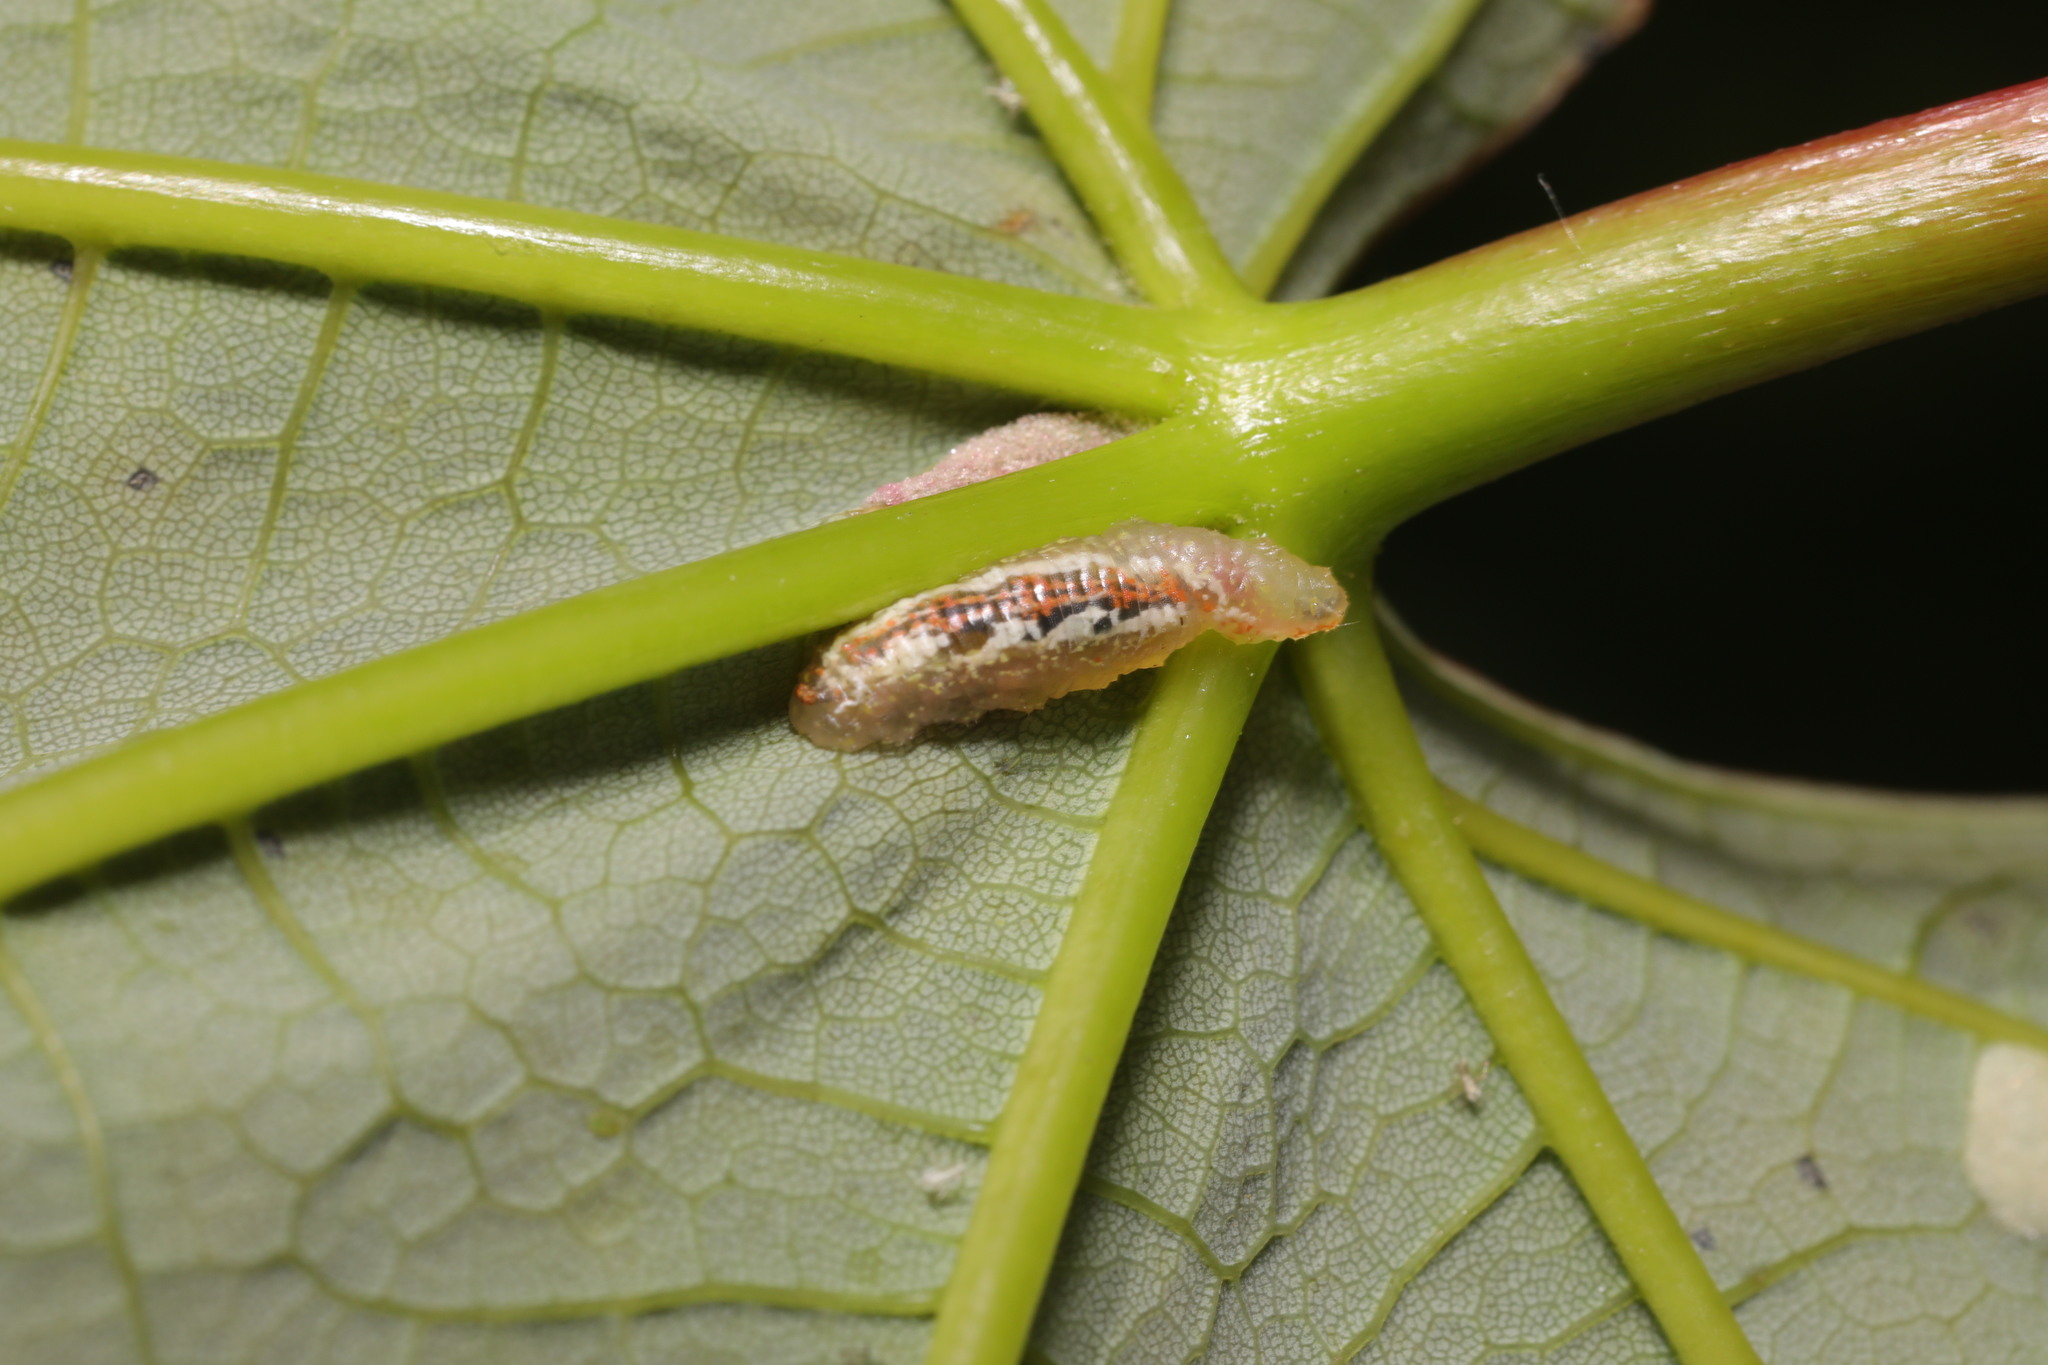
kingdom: Animalia
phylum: Arthropoda
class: Insecta
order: Diptera
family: Syrphidae
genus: Syrphus
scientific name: Syrphus
